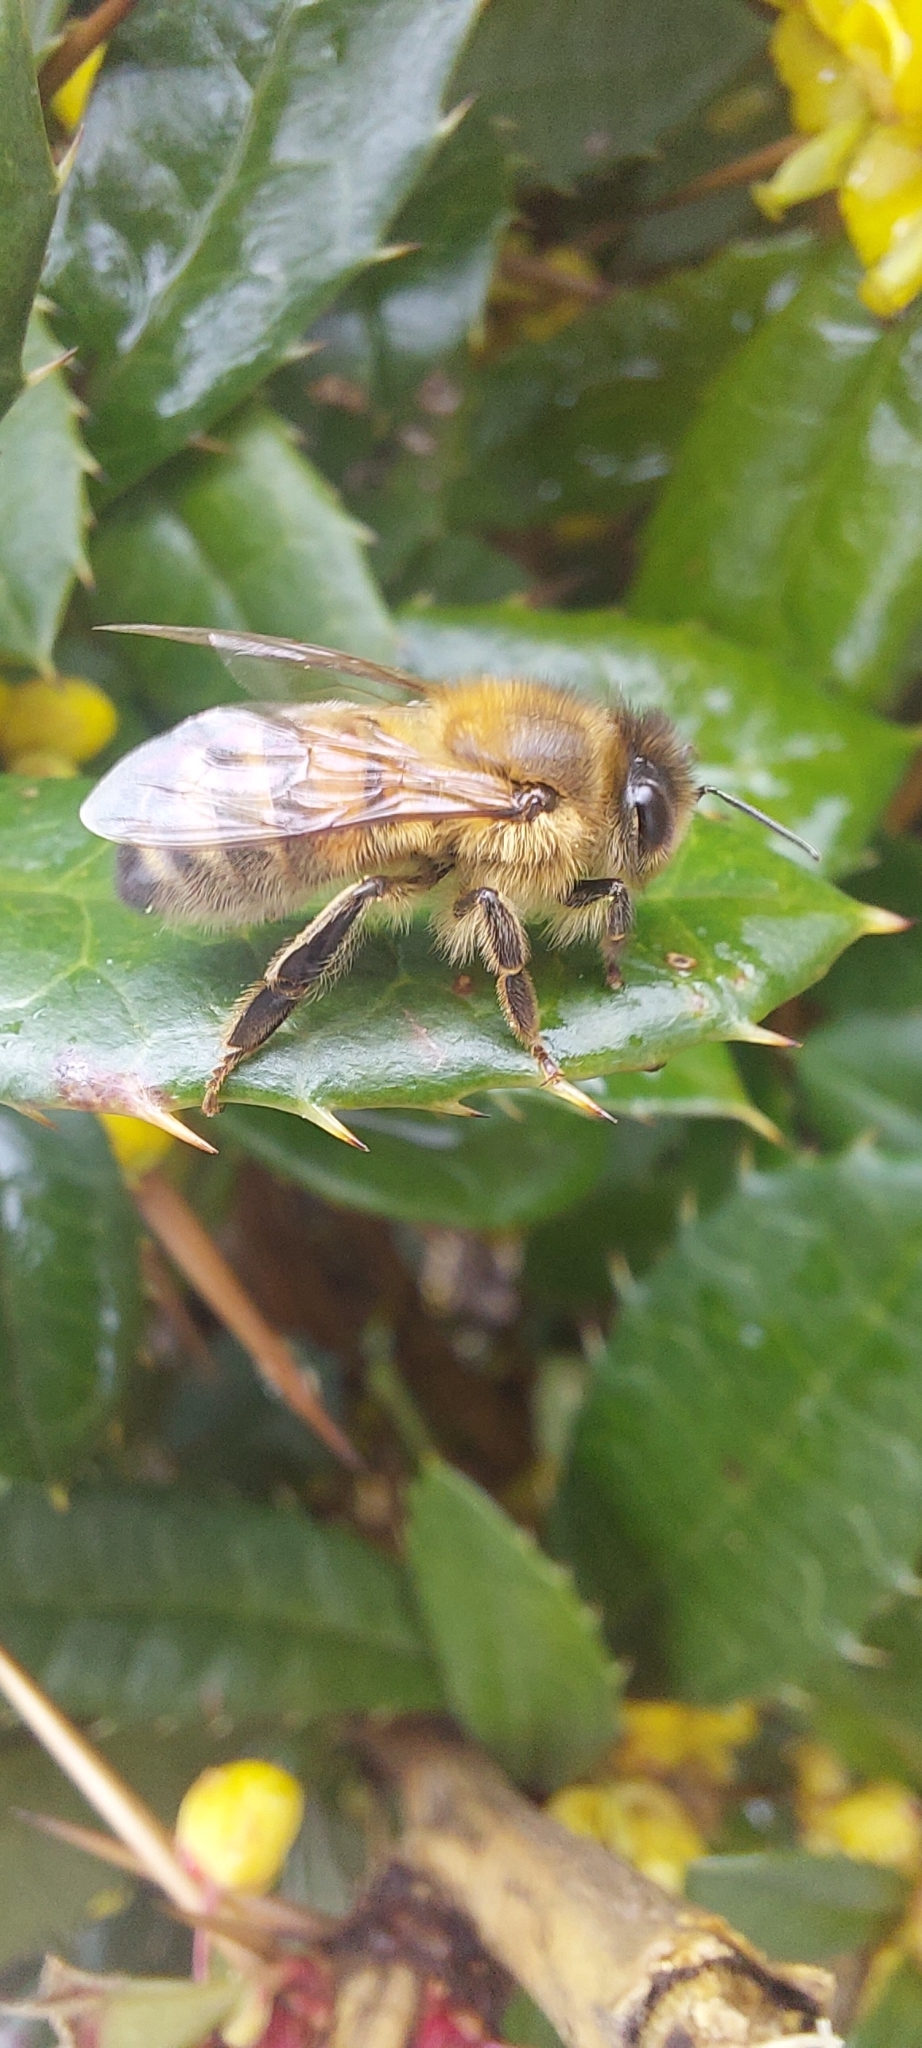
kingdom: Animalia
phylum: Arthropoda
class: Insecta
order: Hymenoptera
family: Apidae
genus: Apis
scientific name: Apis mellifera
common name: Honey bee
